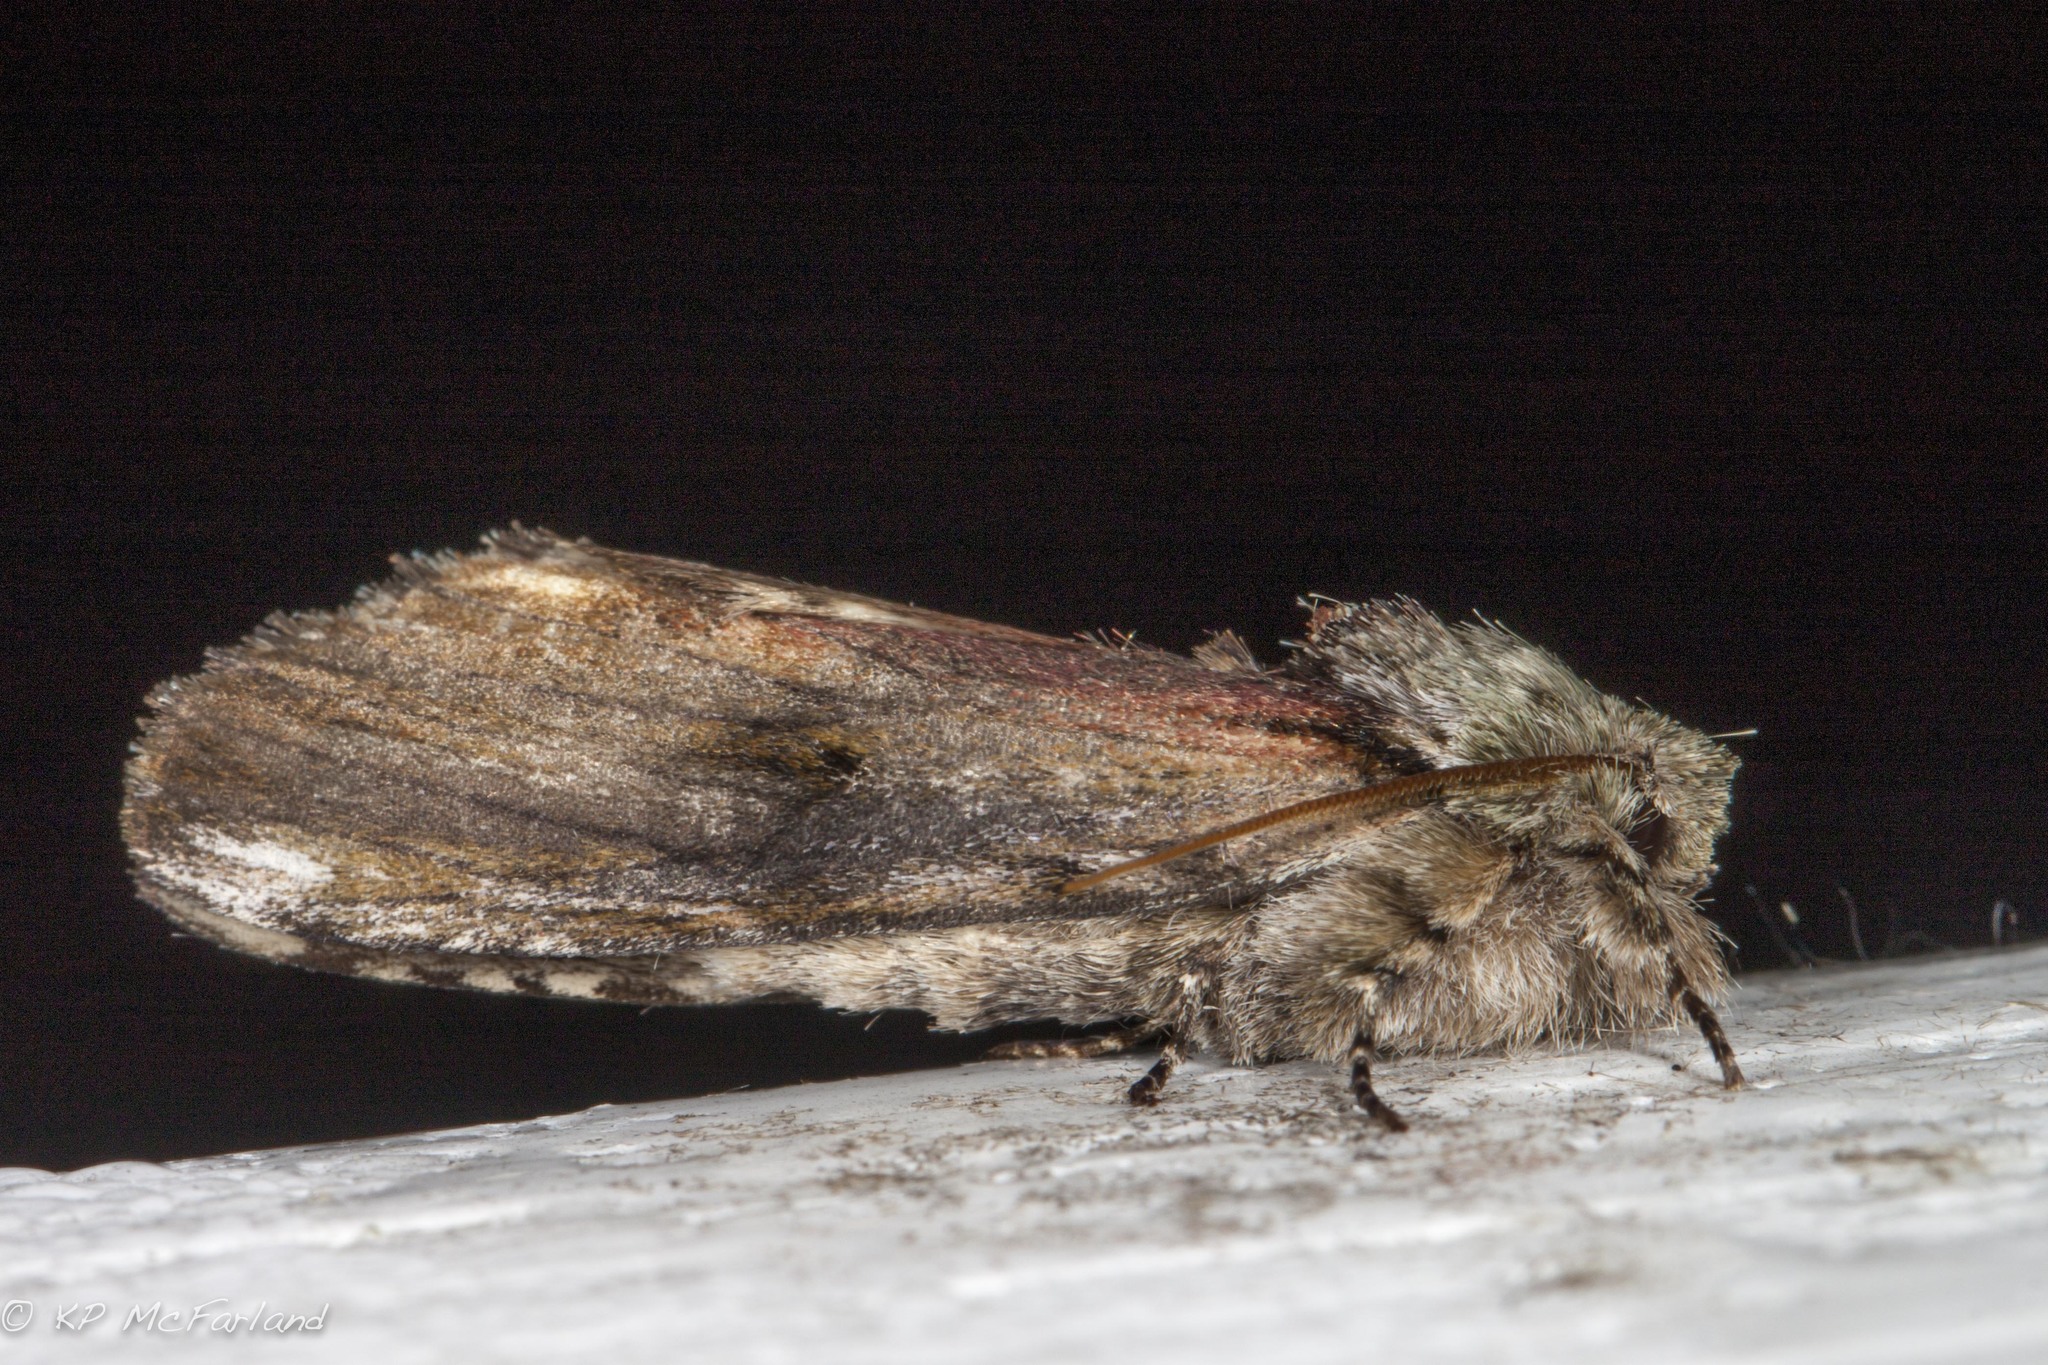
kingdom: Animalia
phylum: Arthropoda
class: Insecta
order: Lepidoptera
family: Notodontidae
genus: Schizura
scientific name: Schizura
